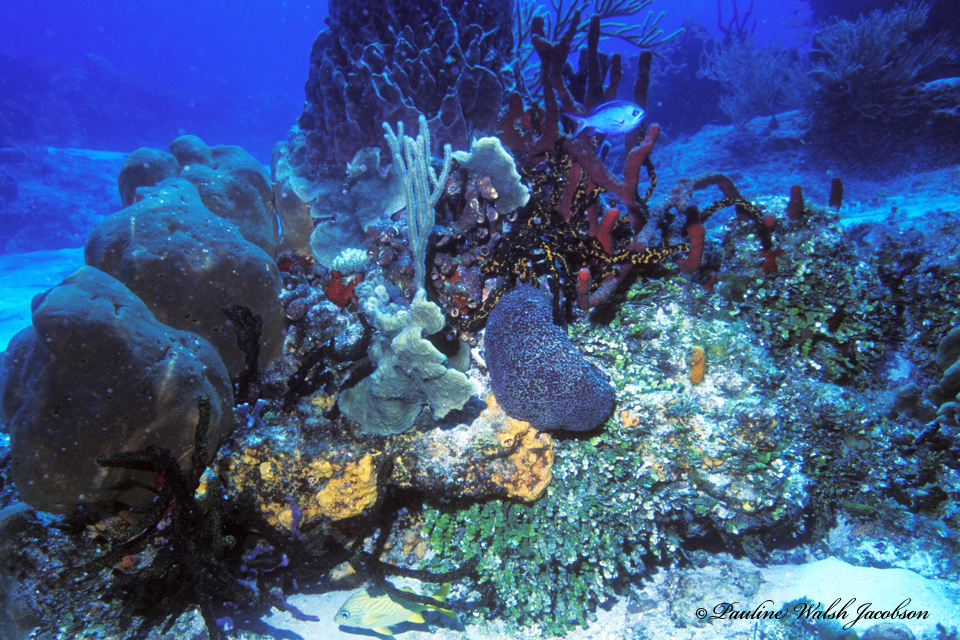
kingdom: Animalia
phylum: Chordata
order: Perciformes
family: Pomacentridae
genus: Chromis
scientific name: Chromis cyanea
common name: Blue chromis
